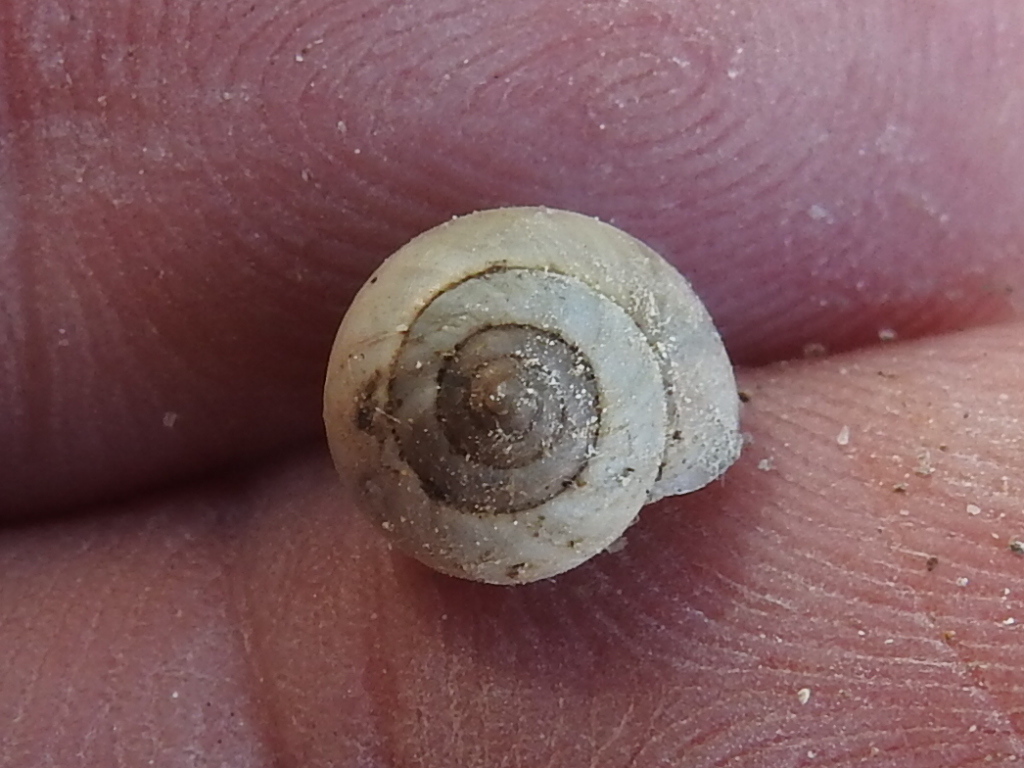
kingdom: Animalia
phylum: Mollusca
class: Gastropoda
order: Cycloneritida
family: Helicinidae
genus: Helicina
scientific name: Helicina orbiculata
